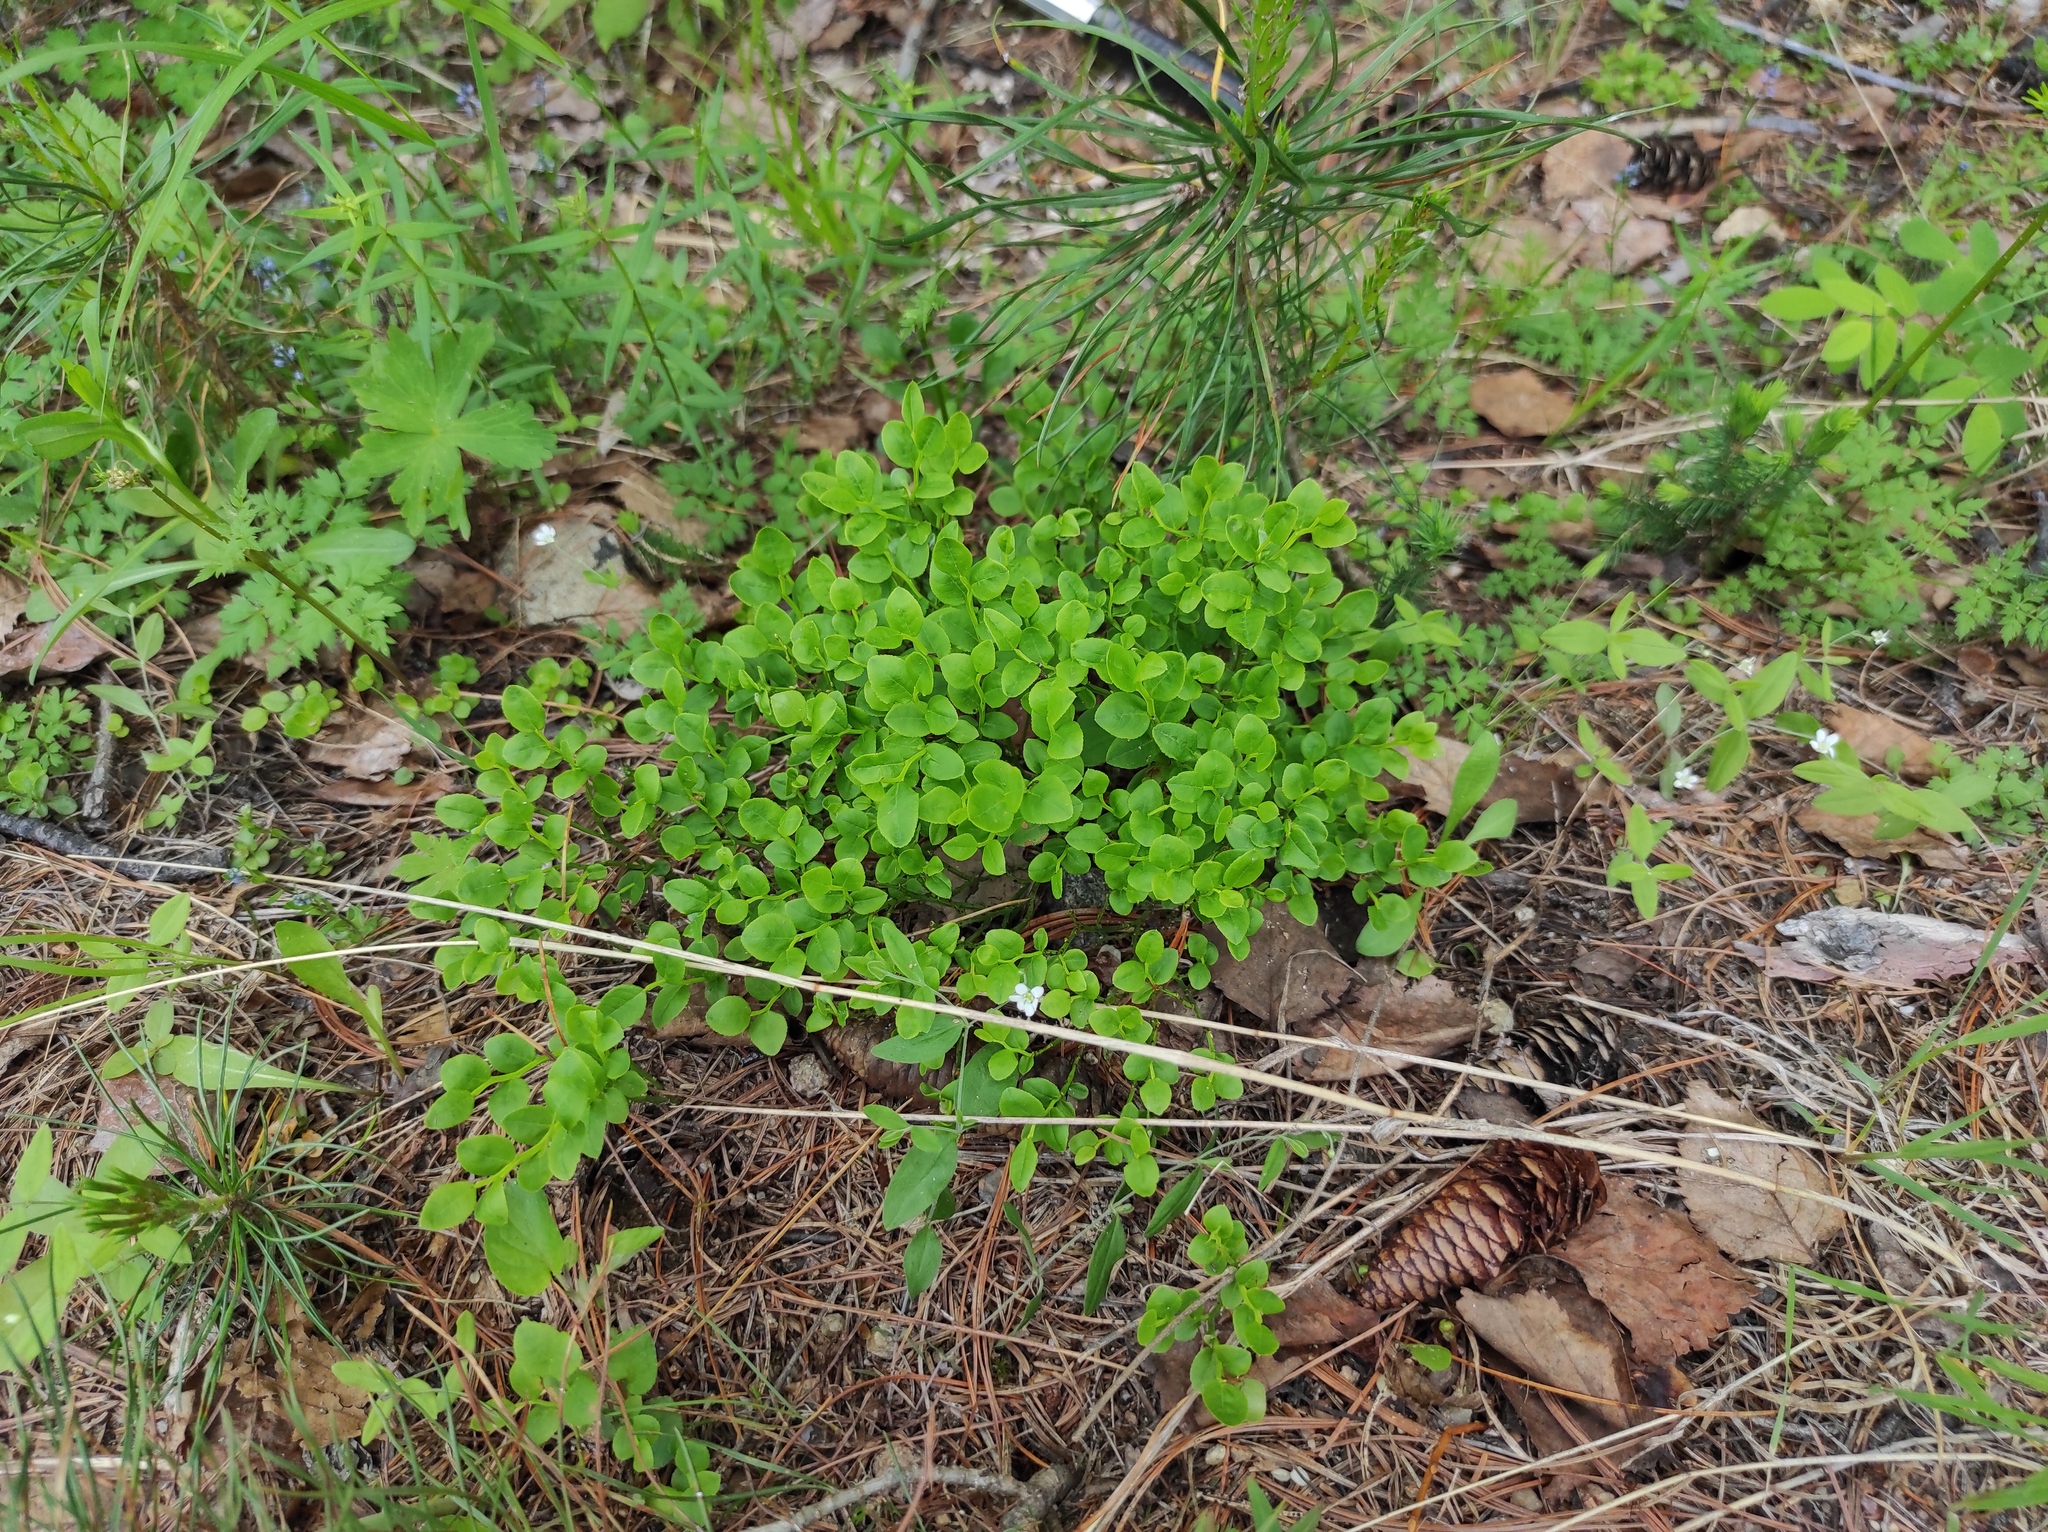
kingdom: Plantae
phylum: Tracheophyta
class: Pinopsida
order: Pinales
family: Pinaceae
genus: Pinus
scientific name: Pinus sylvestris
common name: Scots pine
